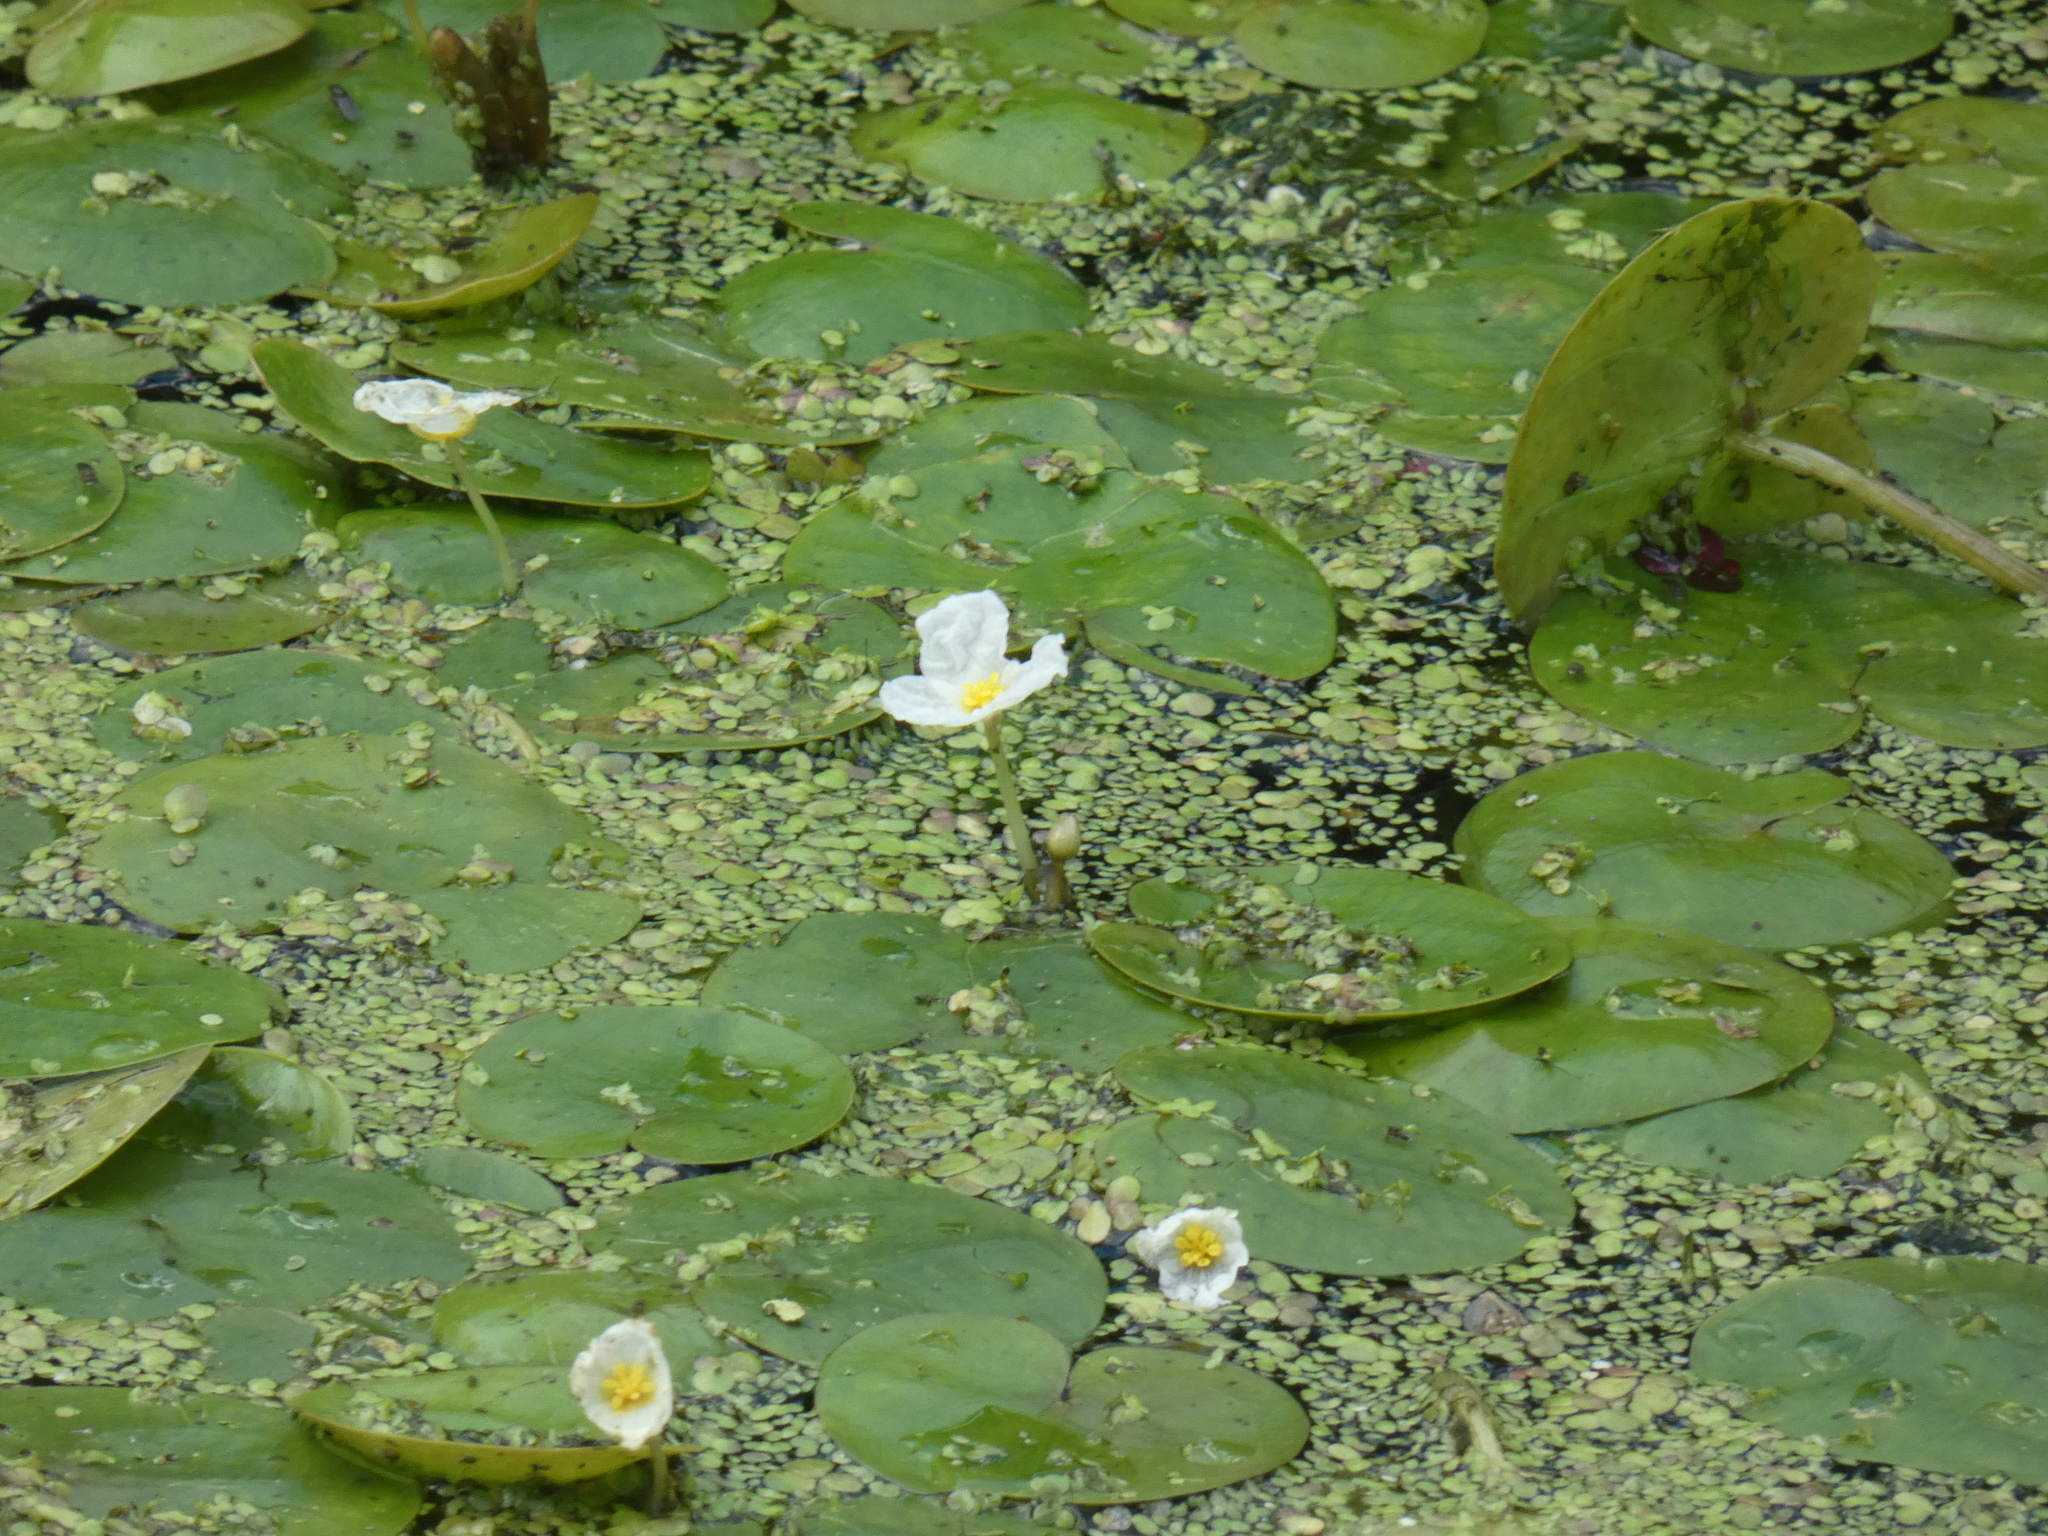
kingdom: Plantae
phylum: Tracheophyta
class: Liliopsida
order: Alismatales
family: Hydrocharitaceae
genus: Hydrocharis
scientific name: Hydrocharis morsus-ranae
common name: Frogbit
